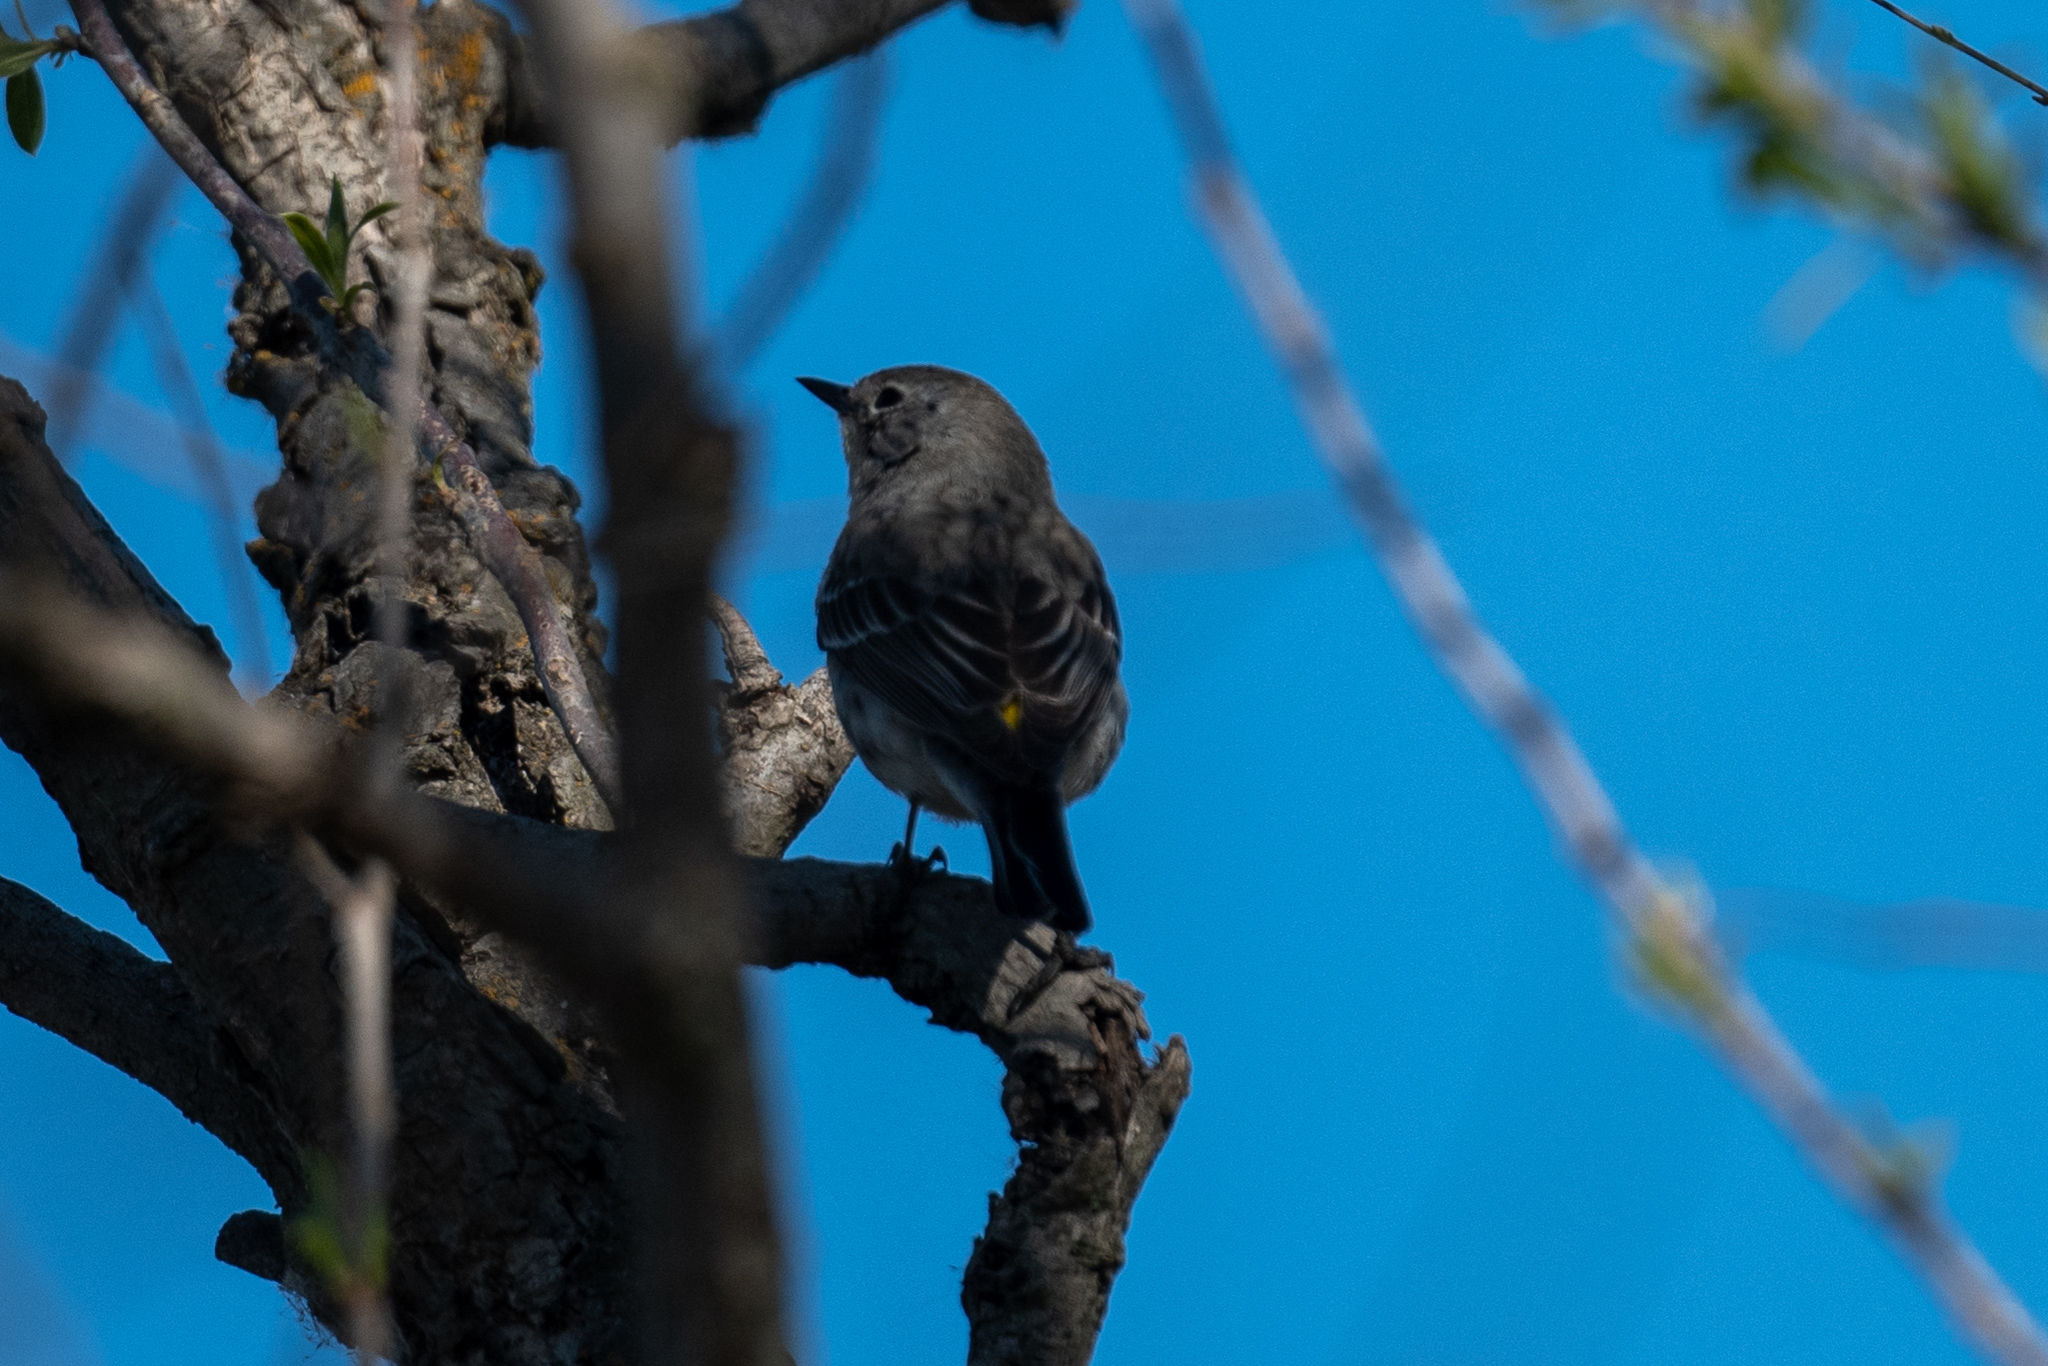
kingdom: Animalia
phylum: Chordata
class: Aves
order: Passeriformes
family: Parulidae
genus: Setophaga
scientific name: Setophaga coronata
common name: Myrtle warbler
